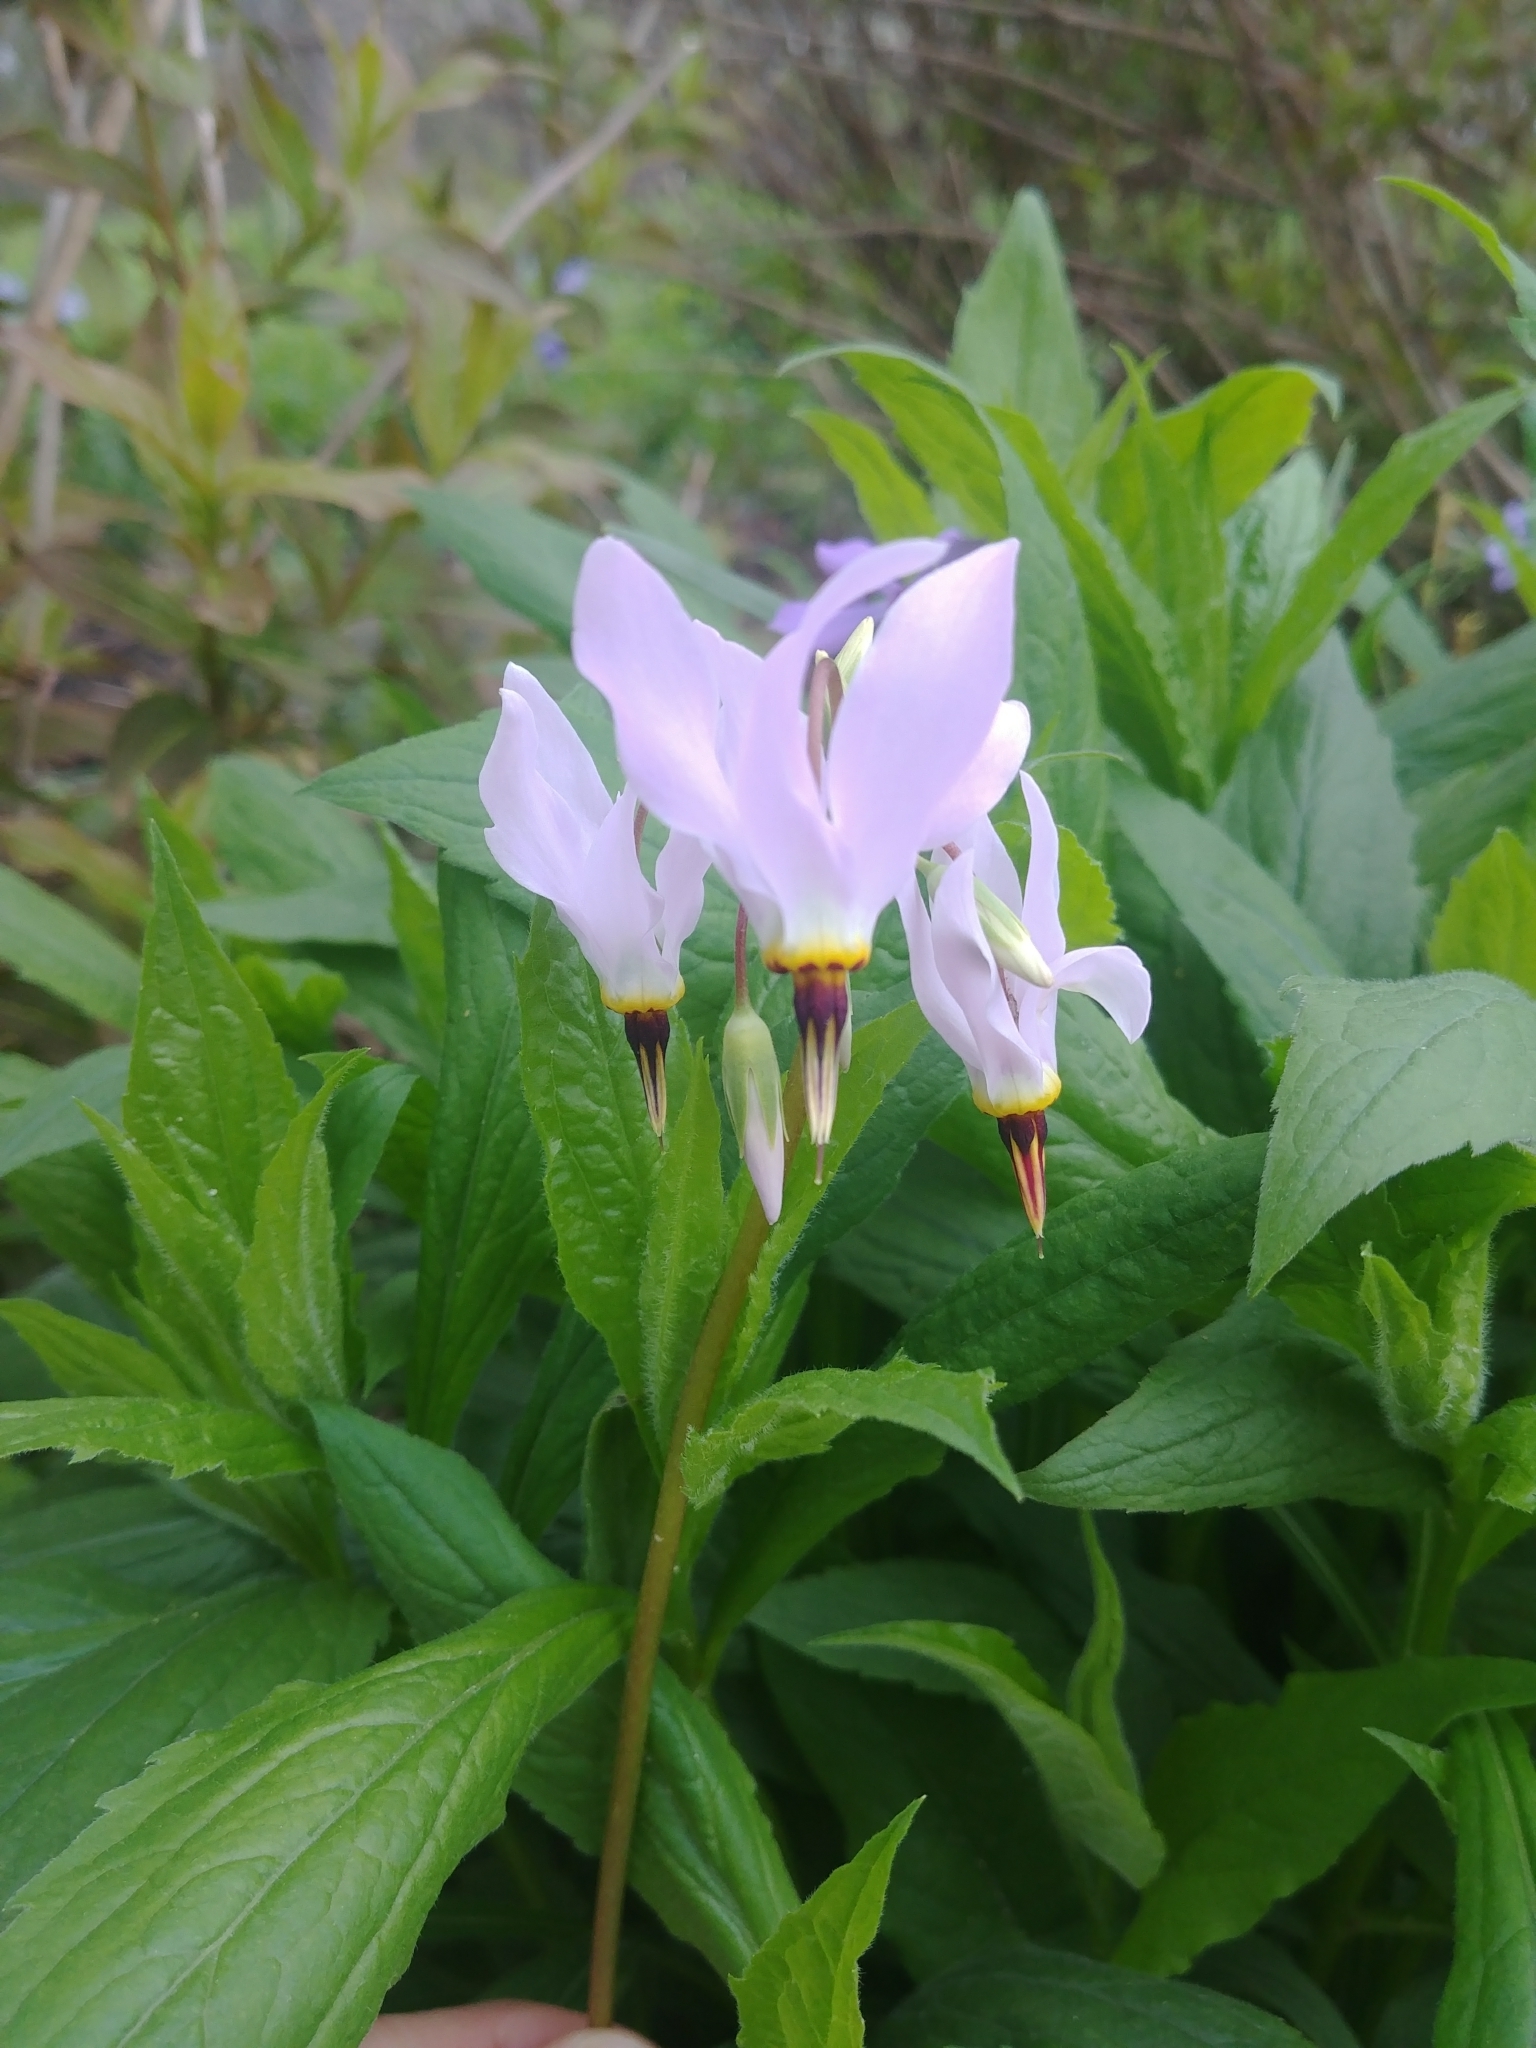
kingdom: Plantae
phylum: Tracheophyta
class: Magnoliopsida
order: Ericales
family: Primulaceae
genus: Dodecatheon
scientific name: Dodecatheon meadia
